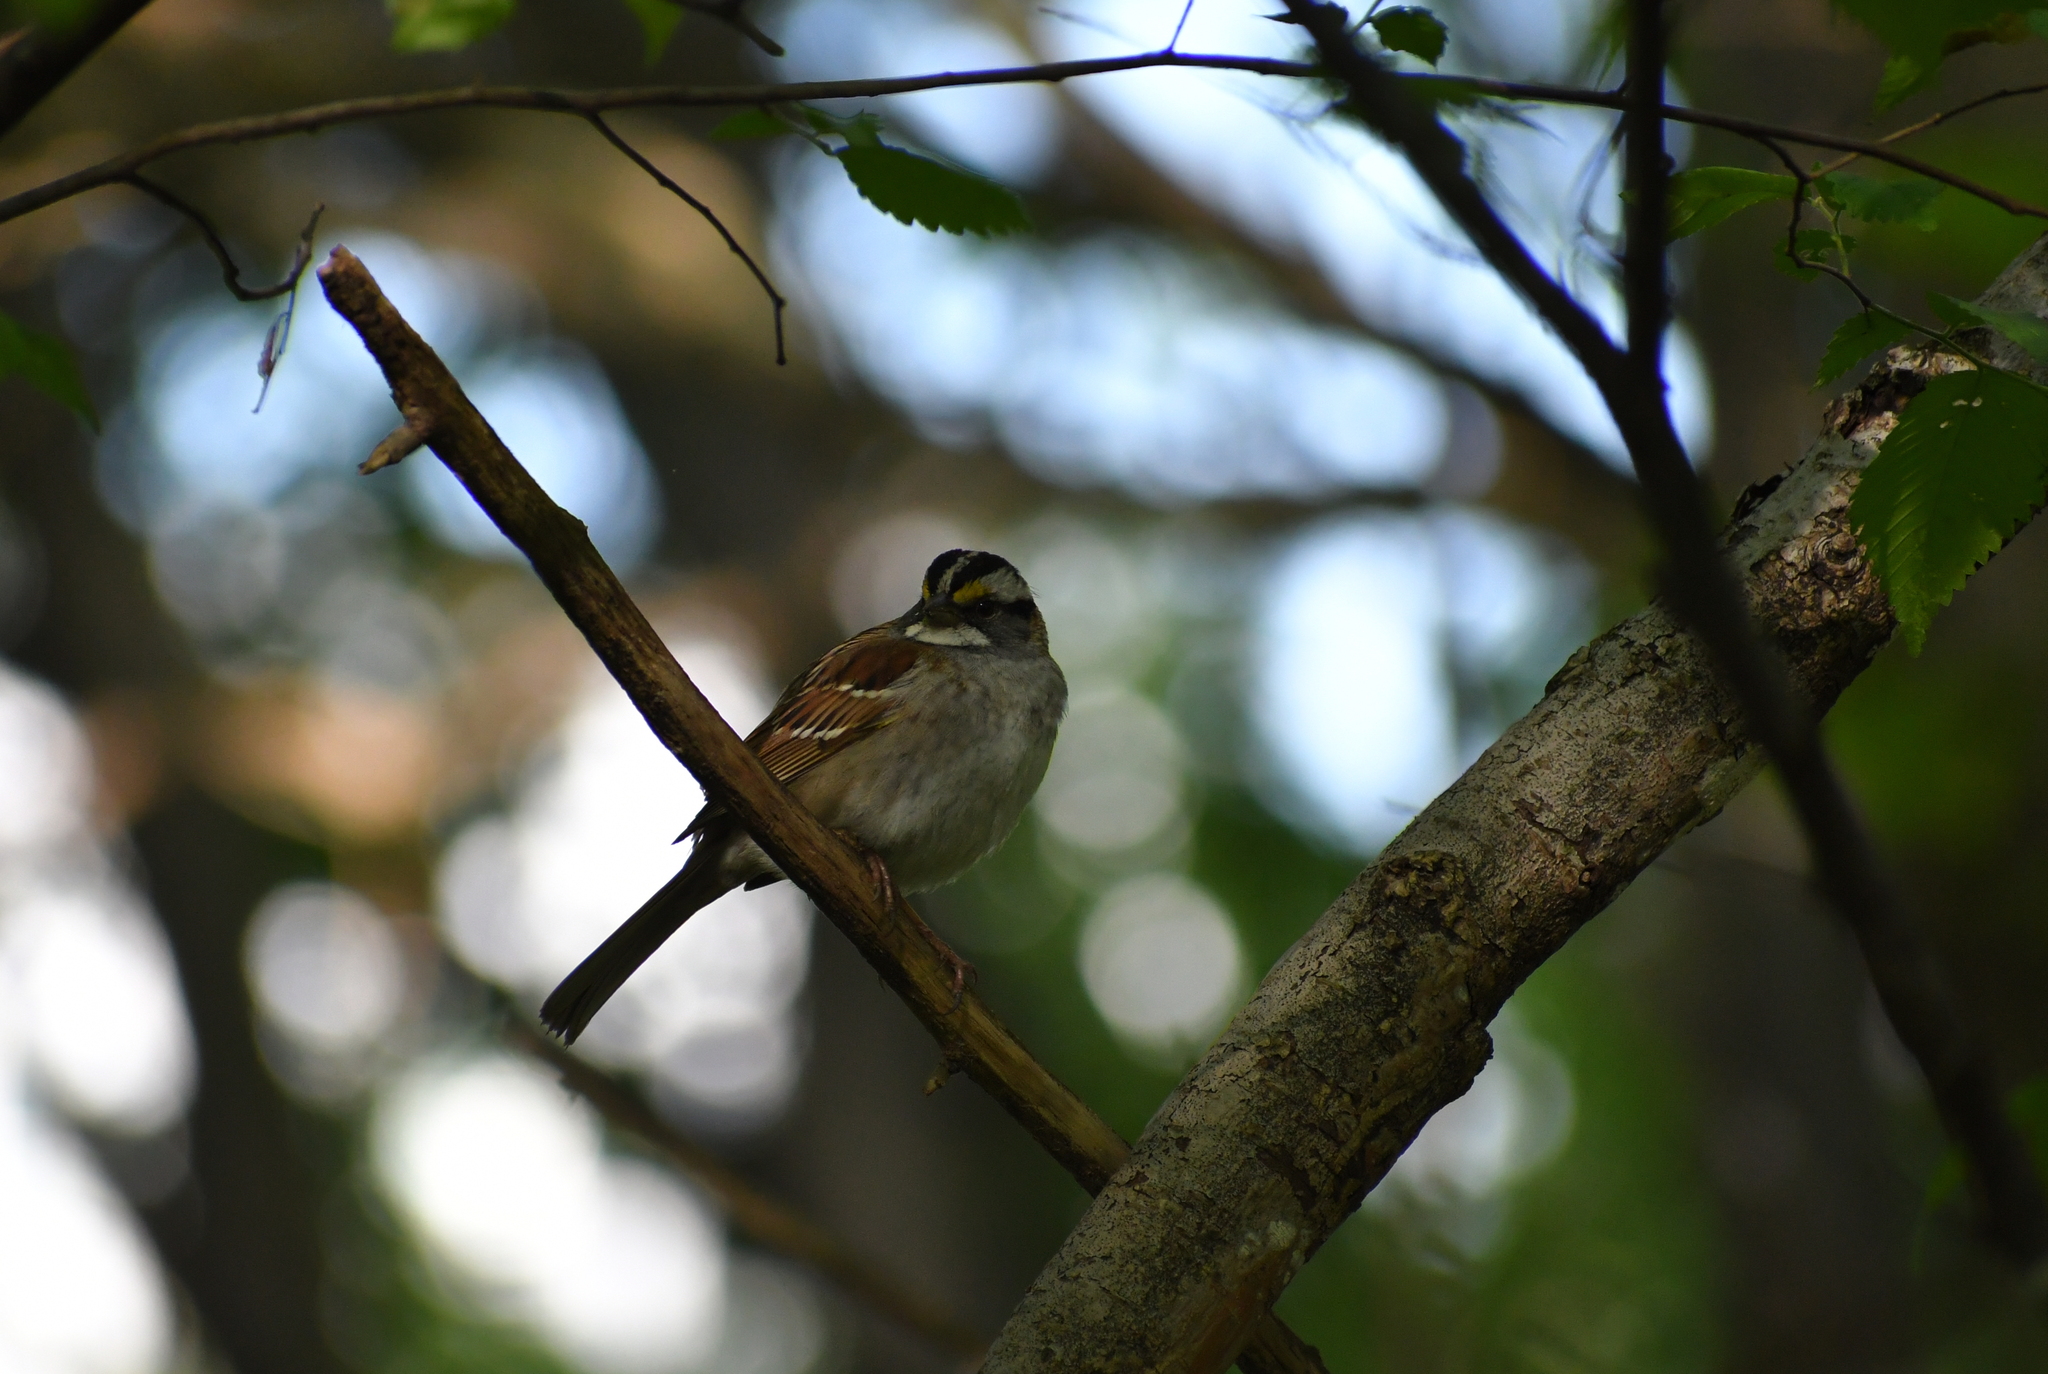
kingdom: Animalia
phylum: Chordata
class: Aves
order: Passeriformes
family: Passerellidae
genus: Zonotrichia
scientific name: Zonotrichia albicollis
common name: White-throated sparrow
